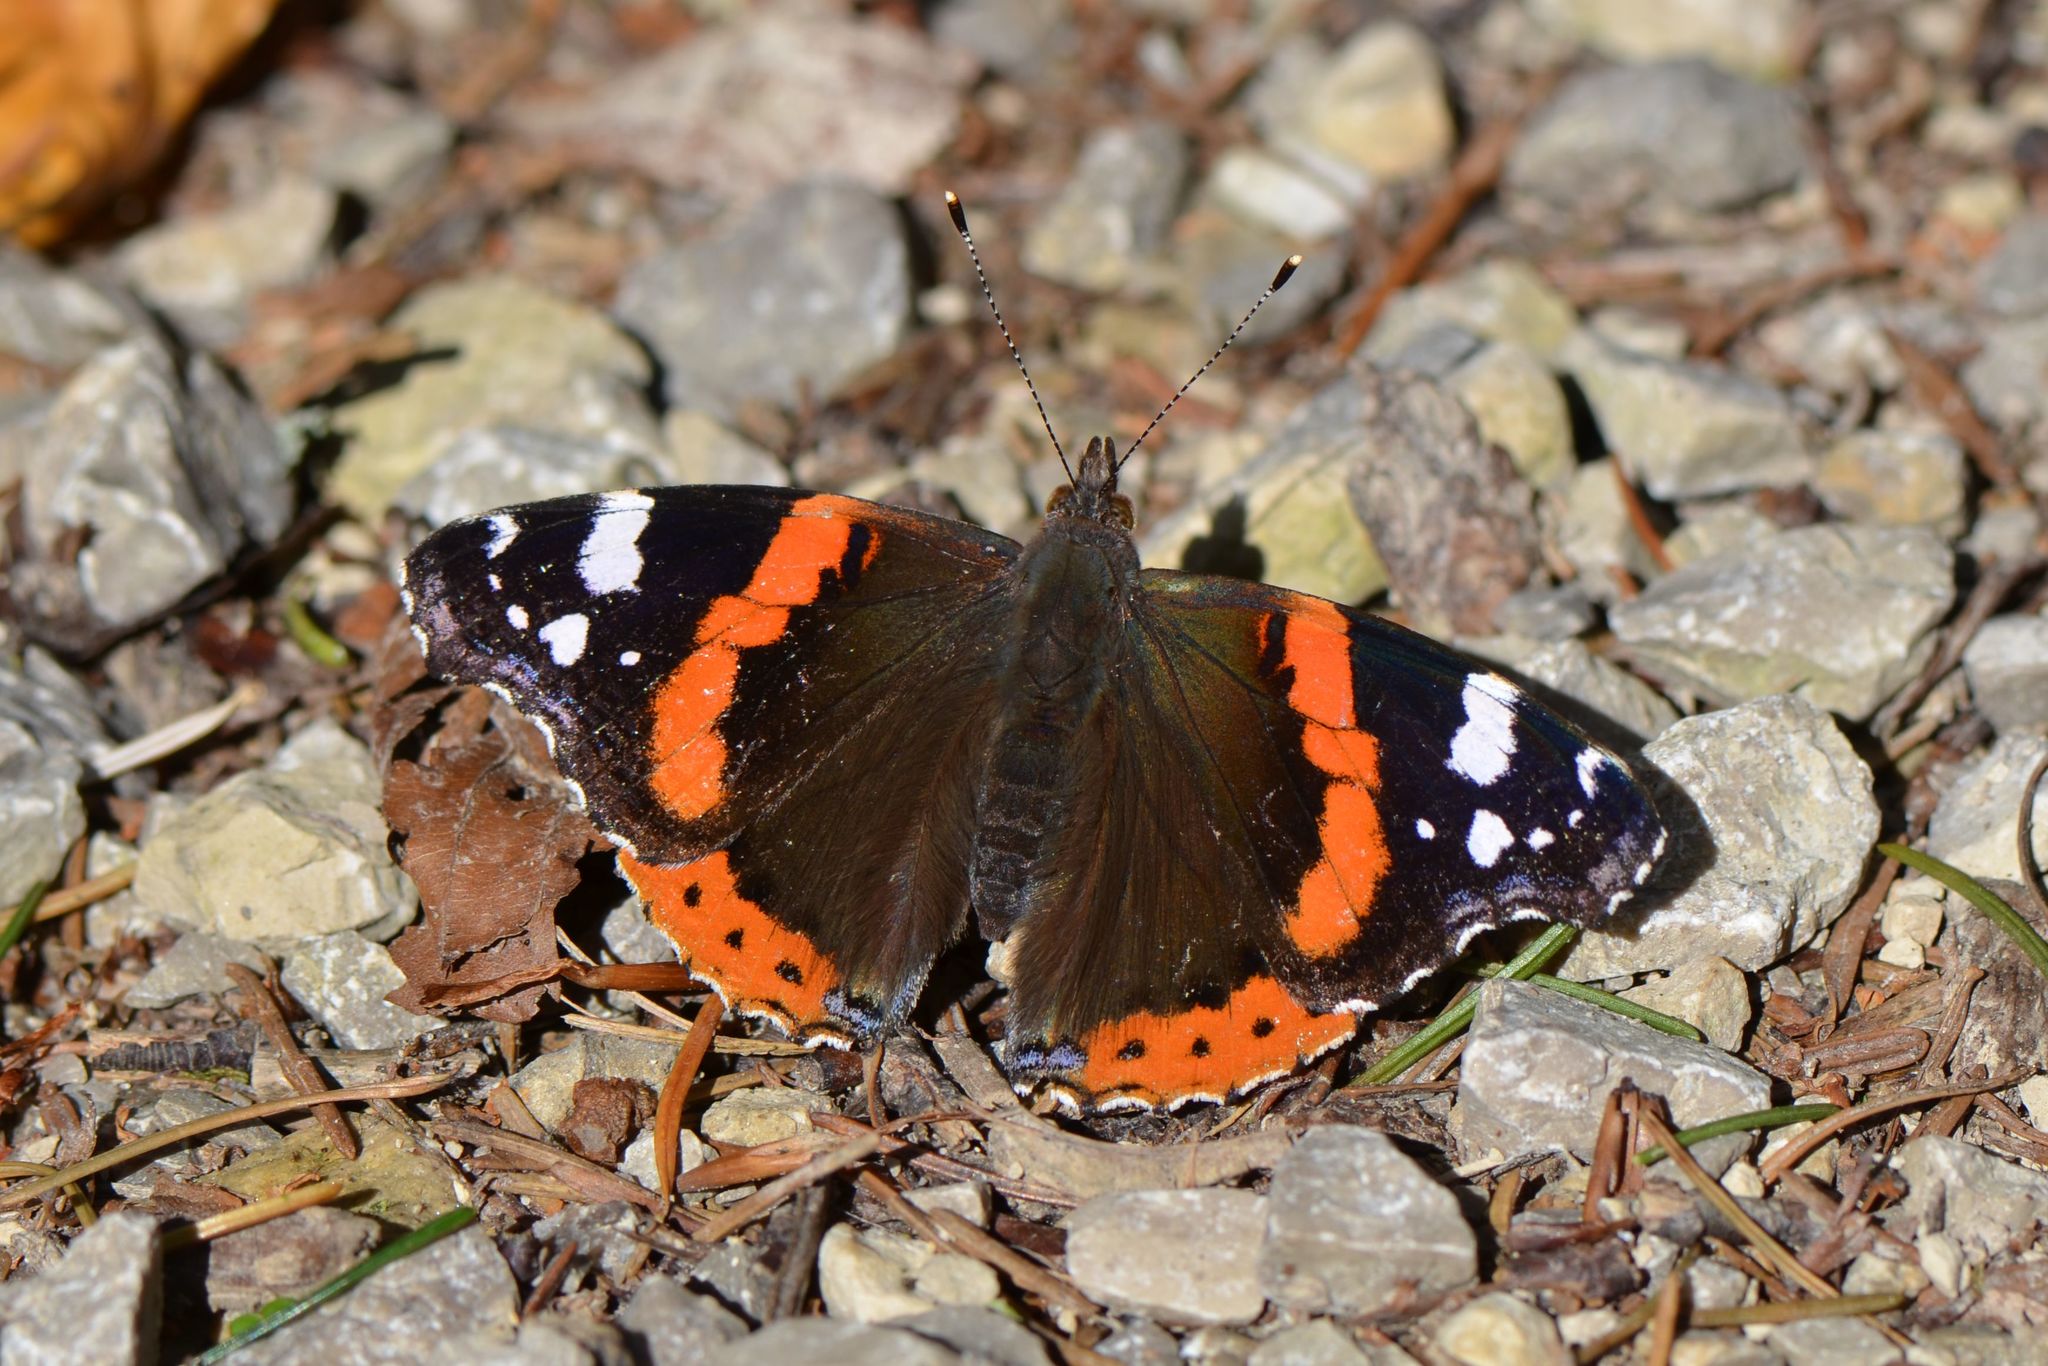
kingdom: Animalia
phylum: Arthropoda
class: Insecta
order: Lepidoptera
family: Nymphalidae
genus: Vanessa
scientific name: Vanessa atalanta
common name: Red admiral
